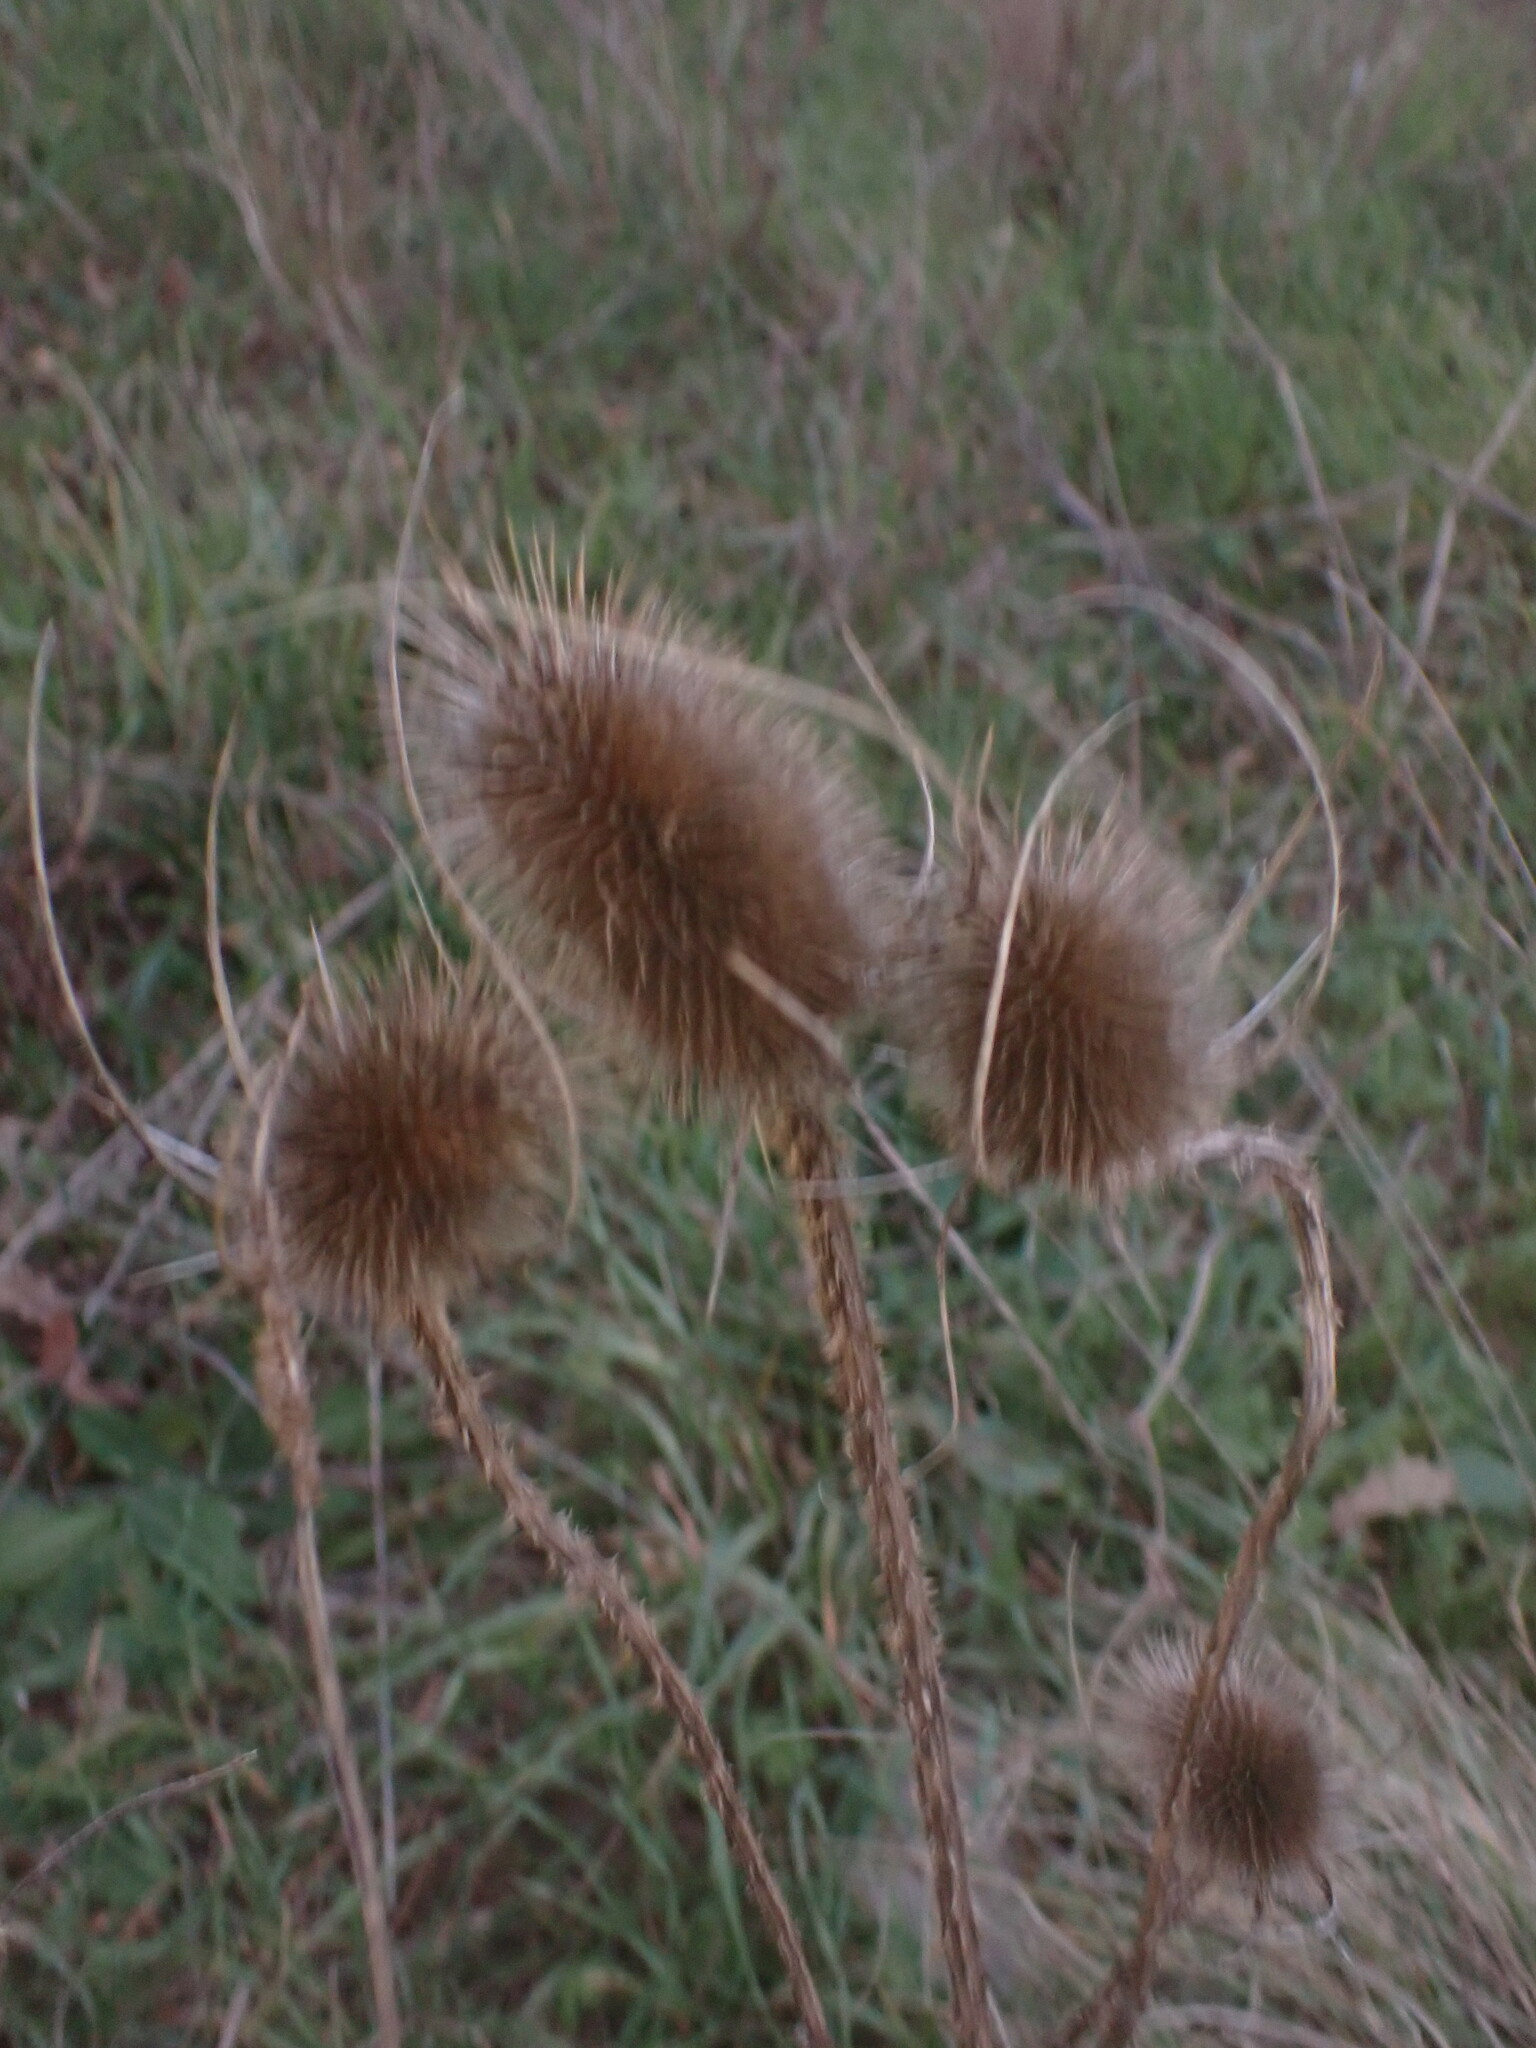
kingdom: Plantae
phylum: Tracheophyta
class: Magnoliopsida
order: Dipsacales
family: Caprifoliaceae
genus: Dipsacus
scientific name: Dipsacus fullonum
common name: Teasel
